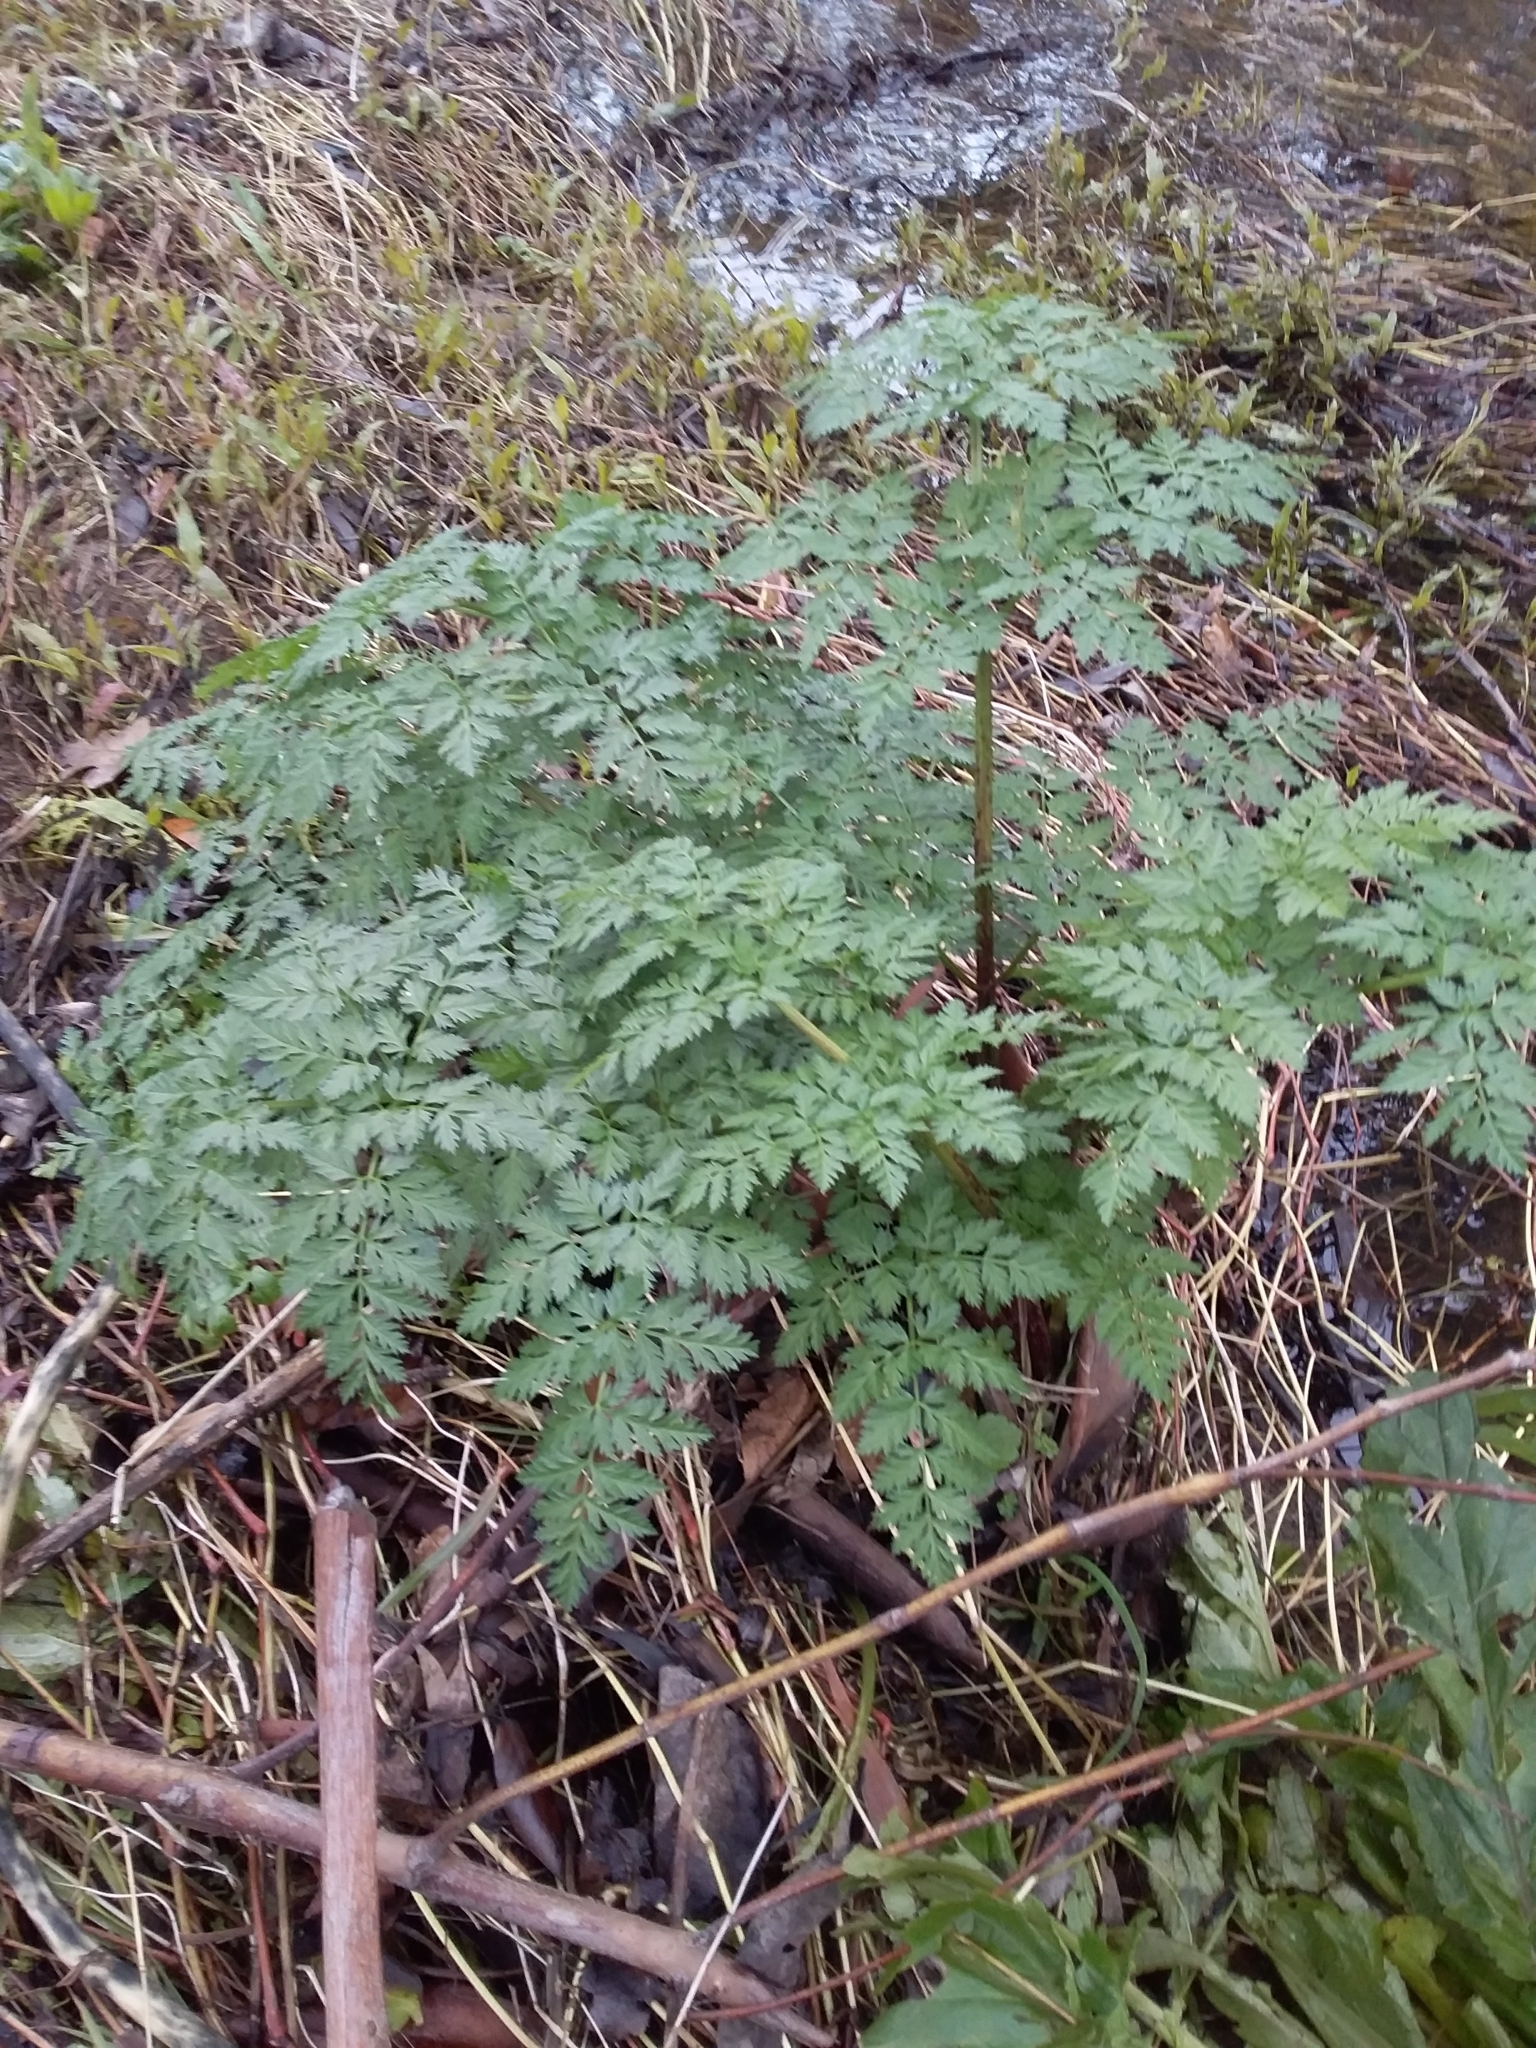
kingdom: Plantae
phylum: Tracheophyta
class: Magnoliopsida
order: Apiales
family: Apiaceae
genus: Conium
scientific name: Conium maculatum
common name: Hemlock
